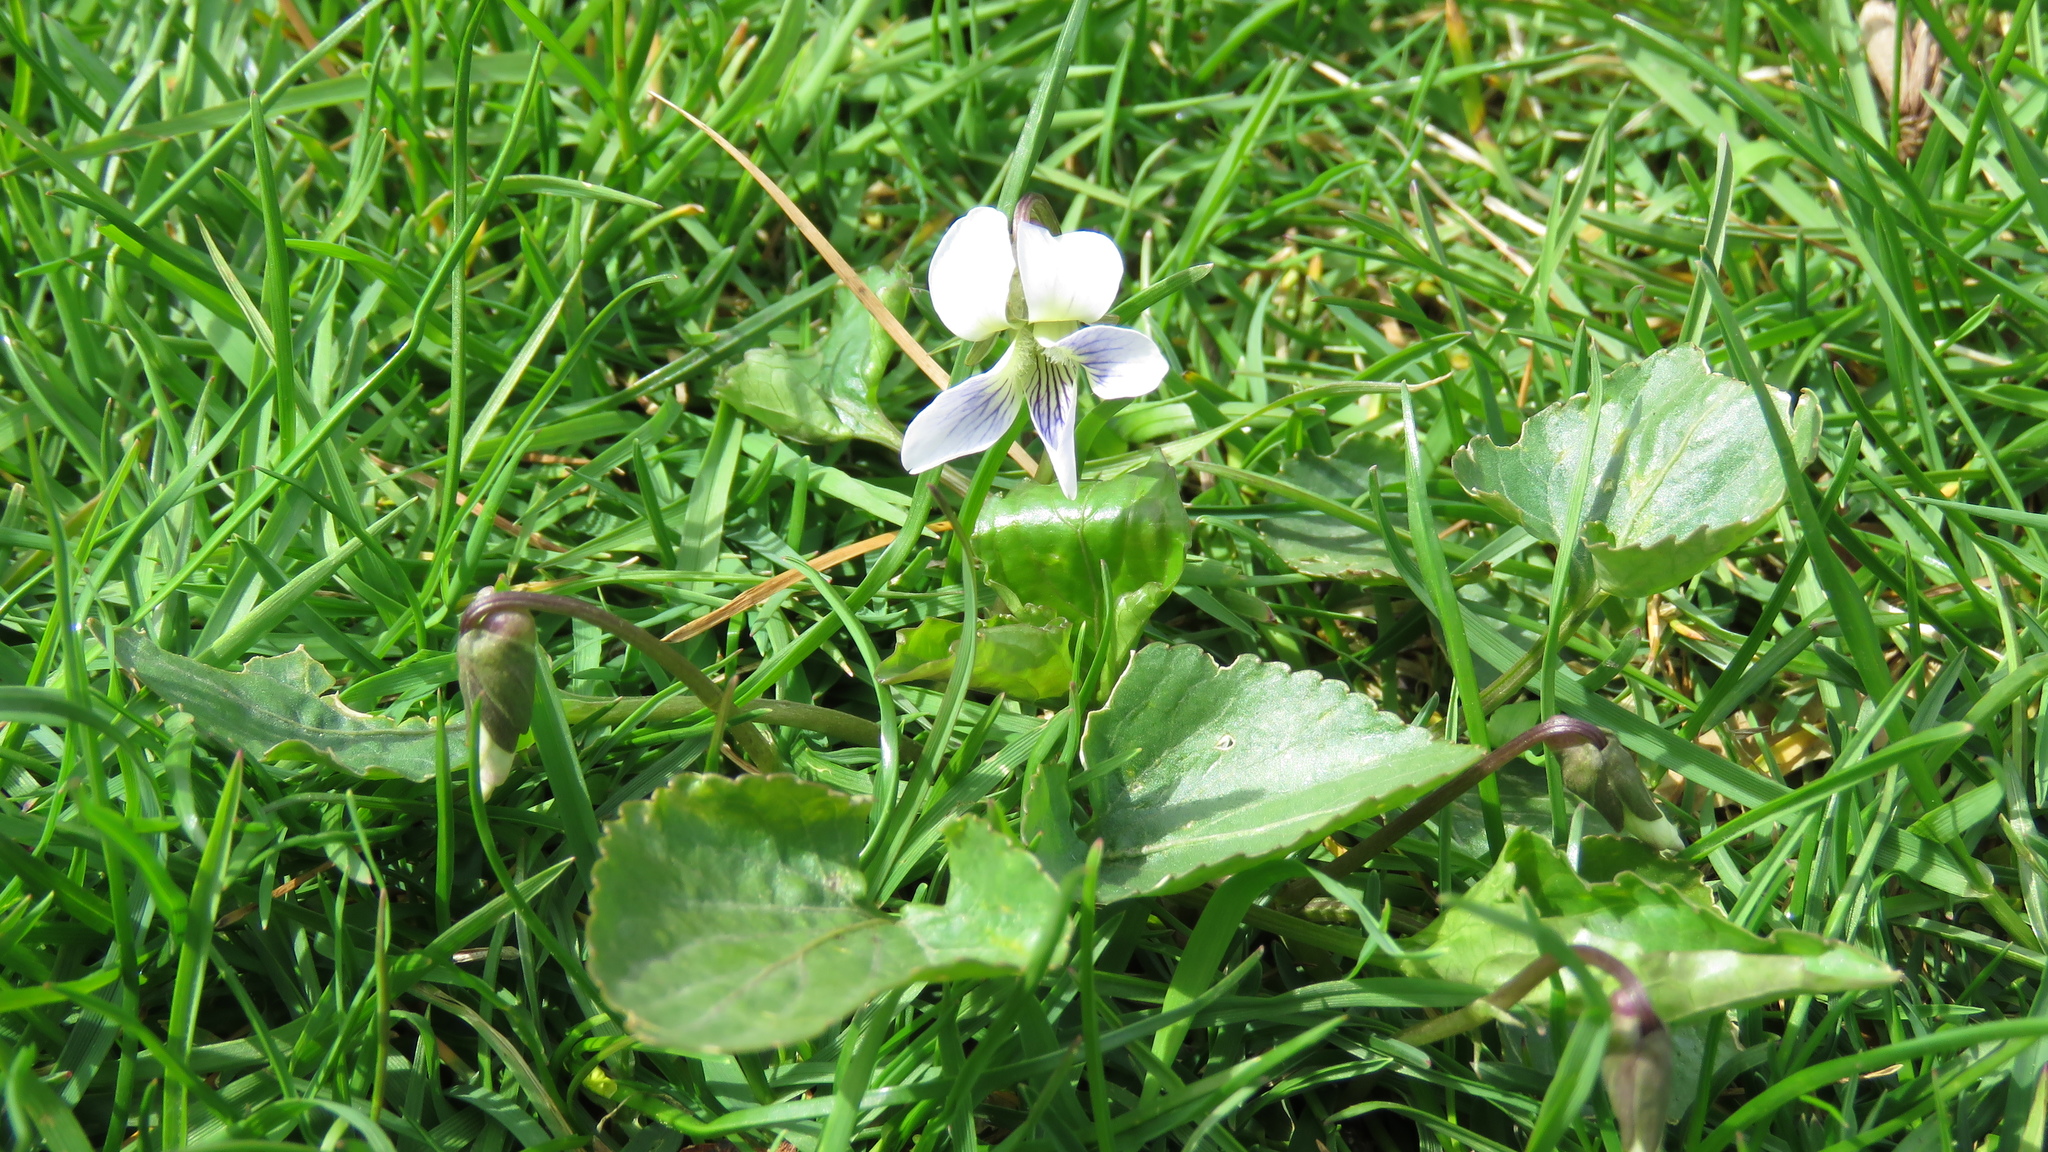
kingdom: Plantae
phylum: Tracheophyta
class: Magnoliopsida
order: Malpighiales
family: Violaceae
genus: Viola
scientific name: Viola sororia
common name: Dooryard violet
